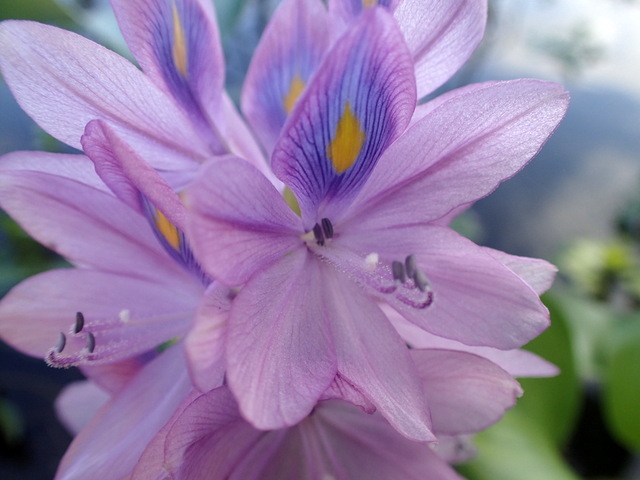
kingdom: Plantae
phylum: Tracheophyta
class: Liliopsida
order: Commelinales
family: Pontederiaceae
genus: Pontederia
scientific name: Pontederia crassipes
